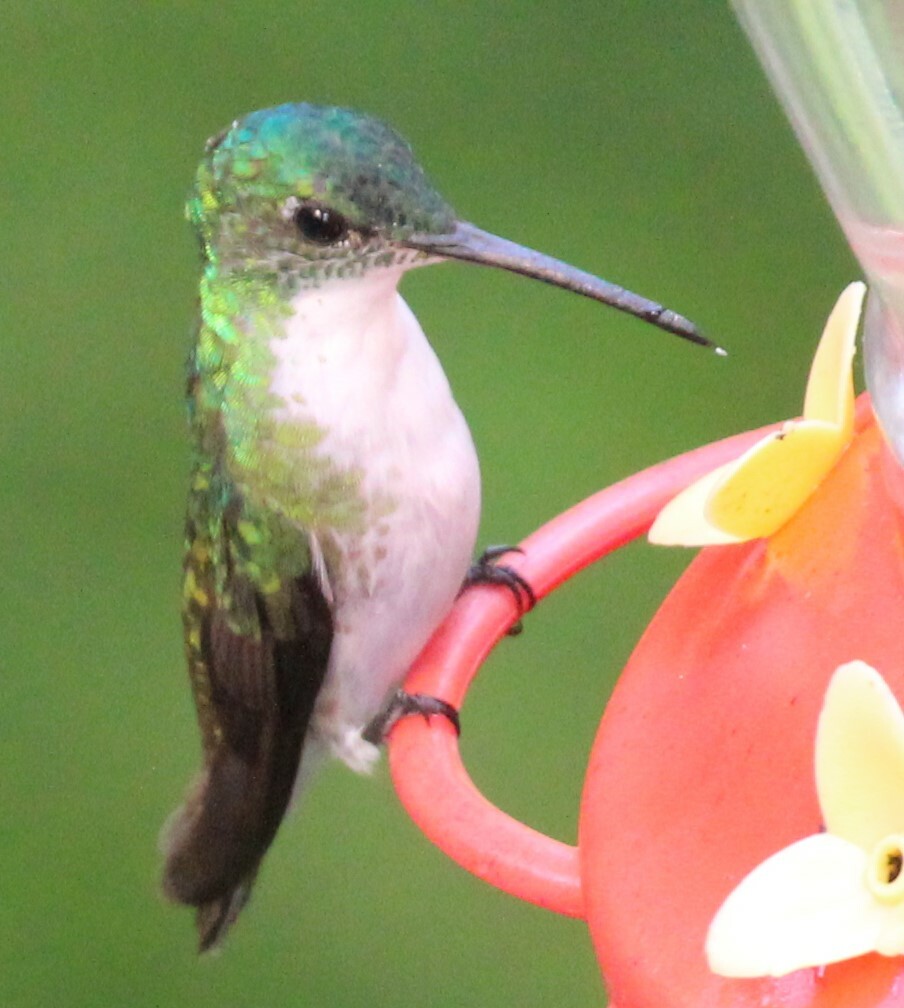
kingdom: Animalia
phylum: Chordata
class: Aves
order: Apodiformes
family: Trochilidae
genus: Uranomitra
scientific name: Uranomitra franciae
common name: Andean emerald
